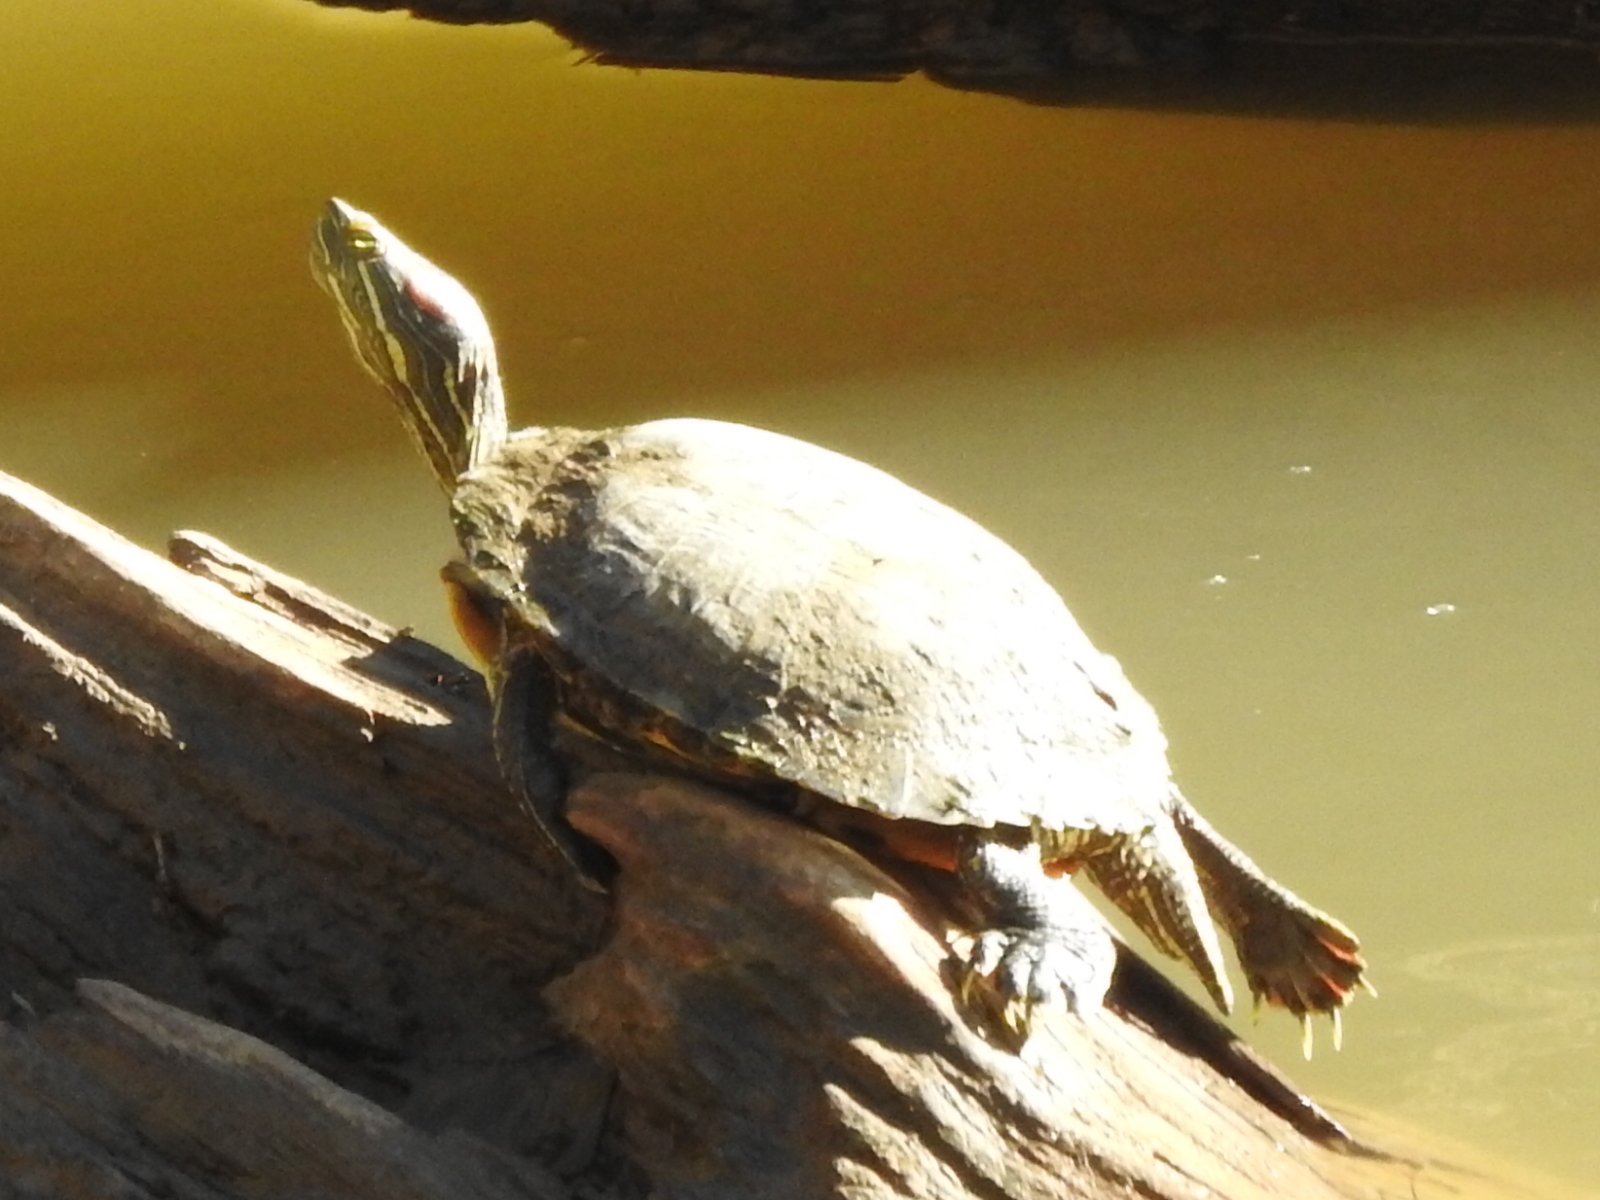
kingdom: Animalia
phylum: Chordata
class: Testudines
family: Emydidae
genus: Trachemys
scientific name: Trachemys scripta
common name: Slider
